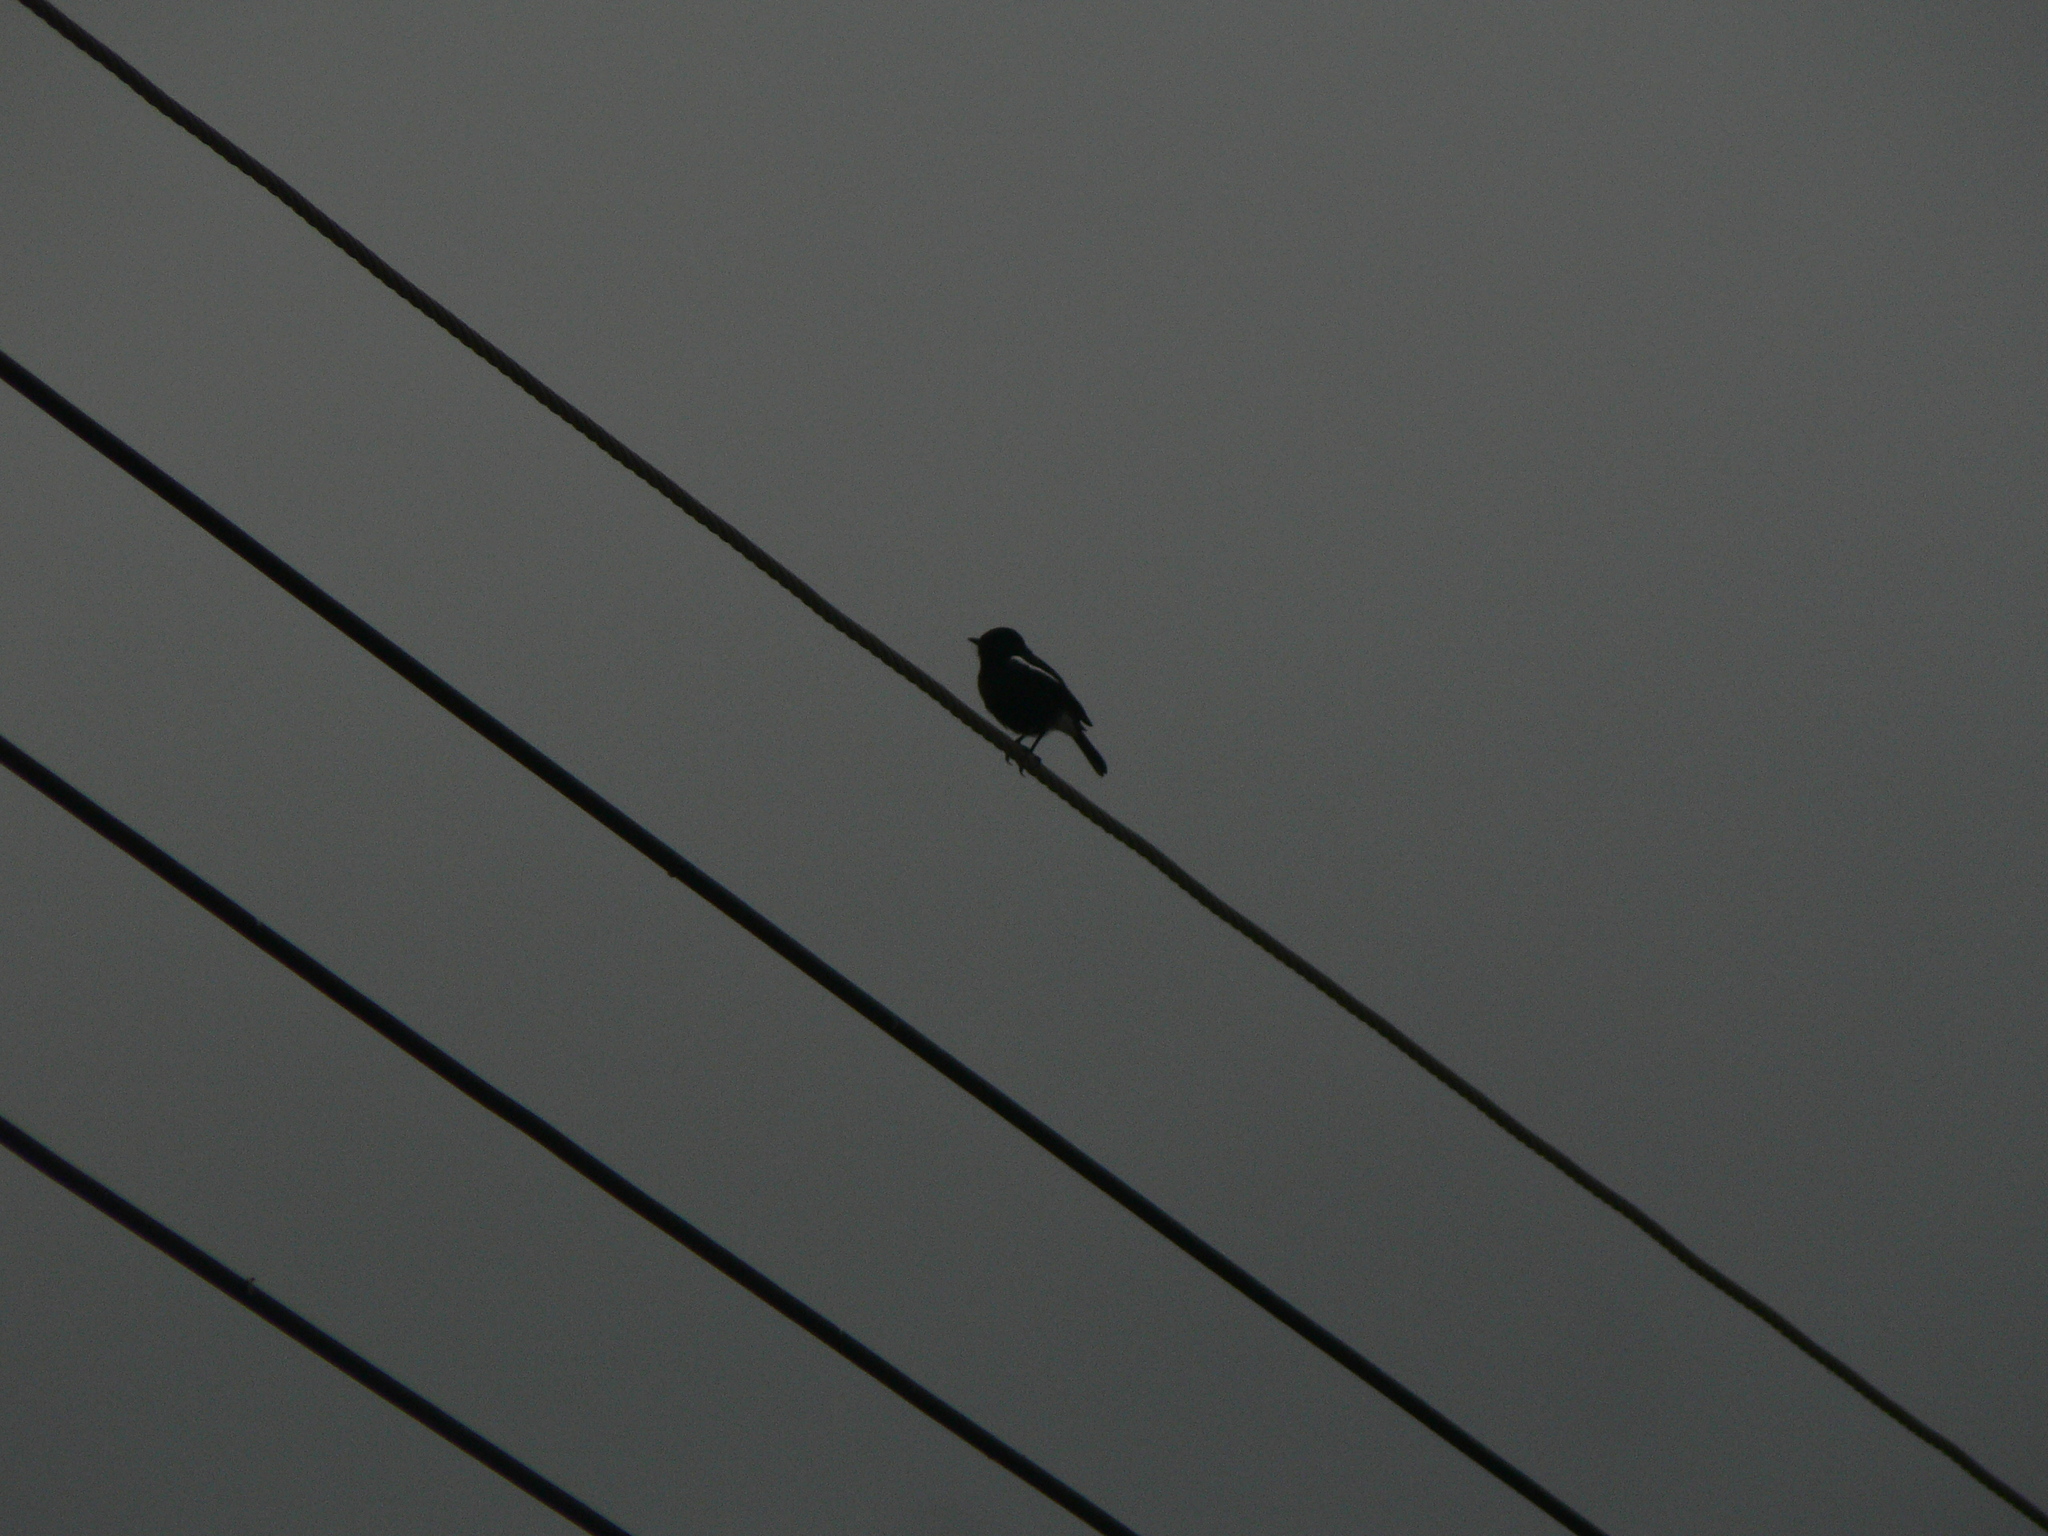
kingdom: Animalia
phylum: Chordata
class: Aves
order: Passeriformes
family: Muscicapidae
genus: Saxicola
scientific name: Saxicola caprata
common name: Pied bush chat
